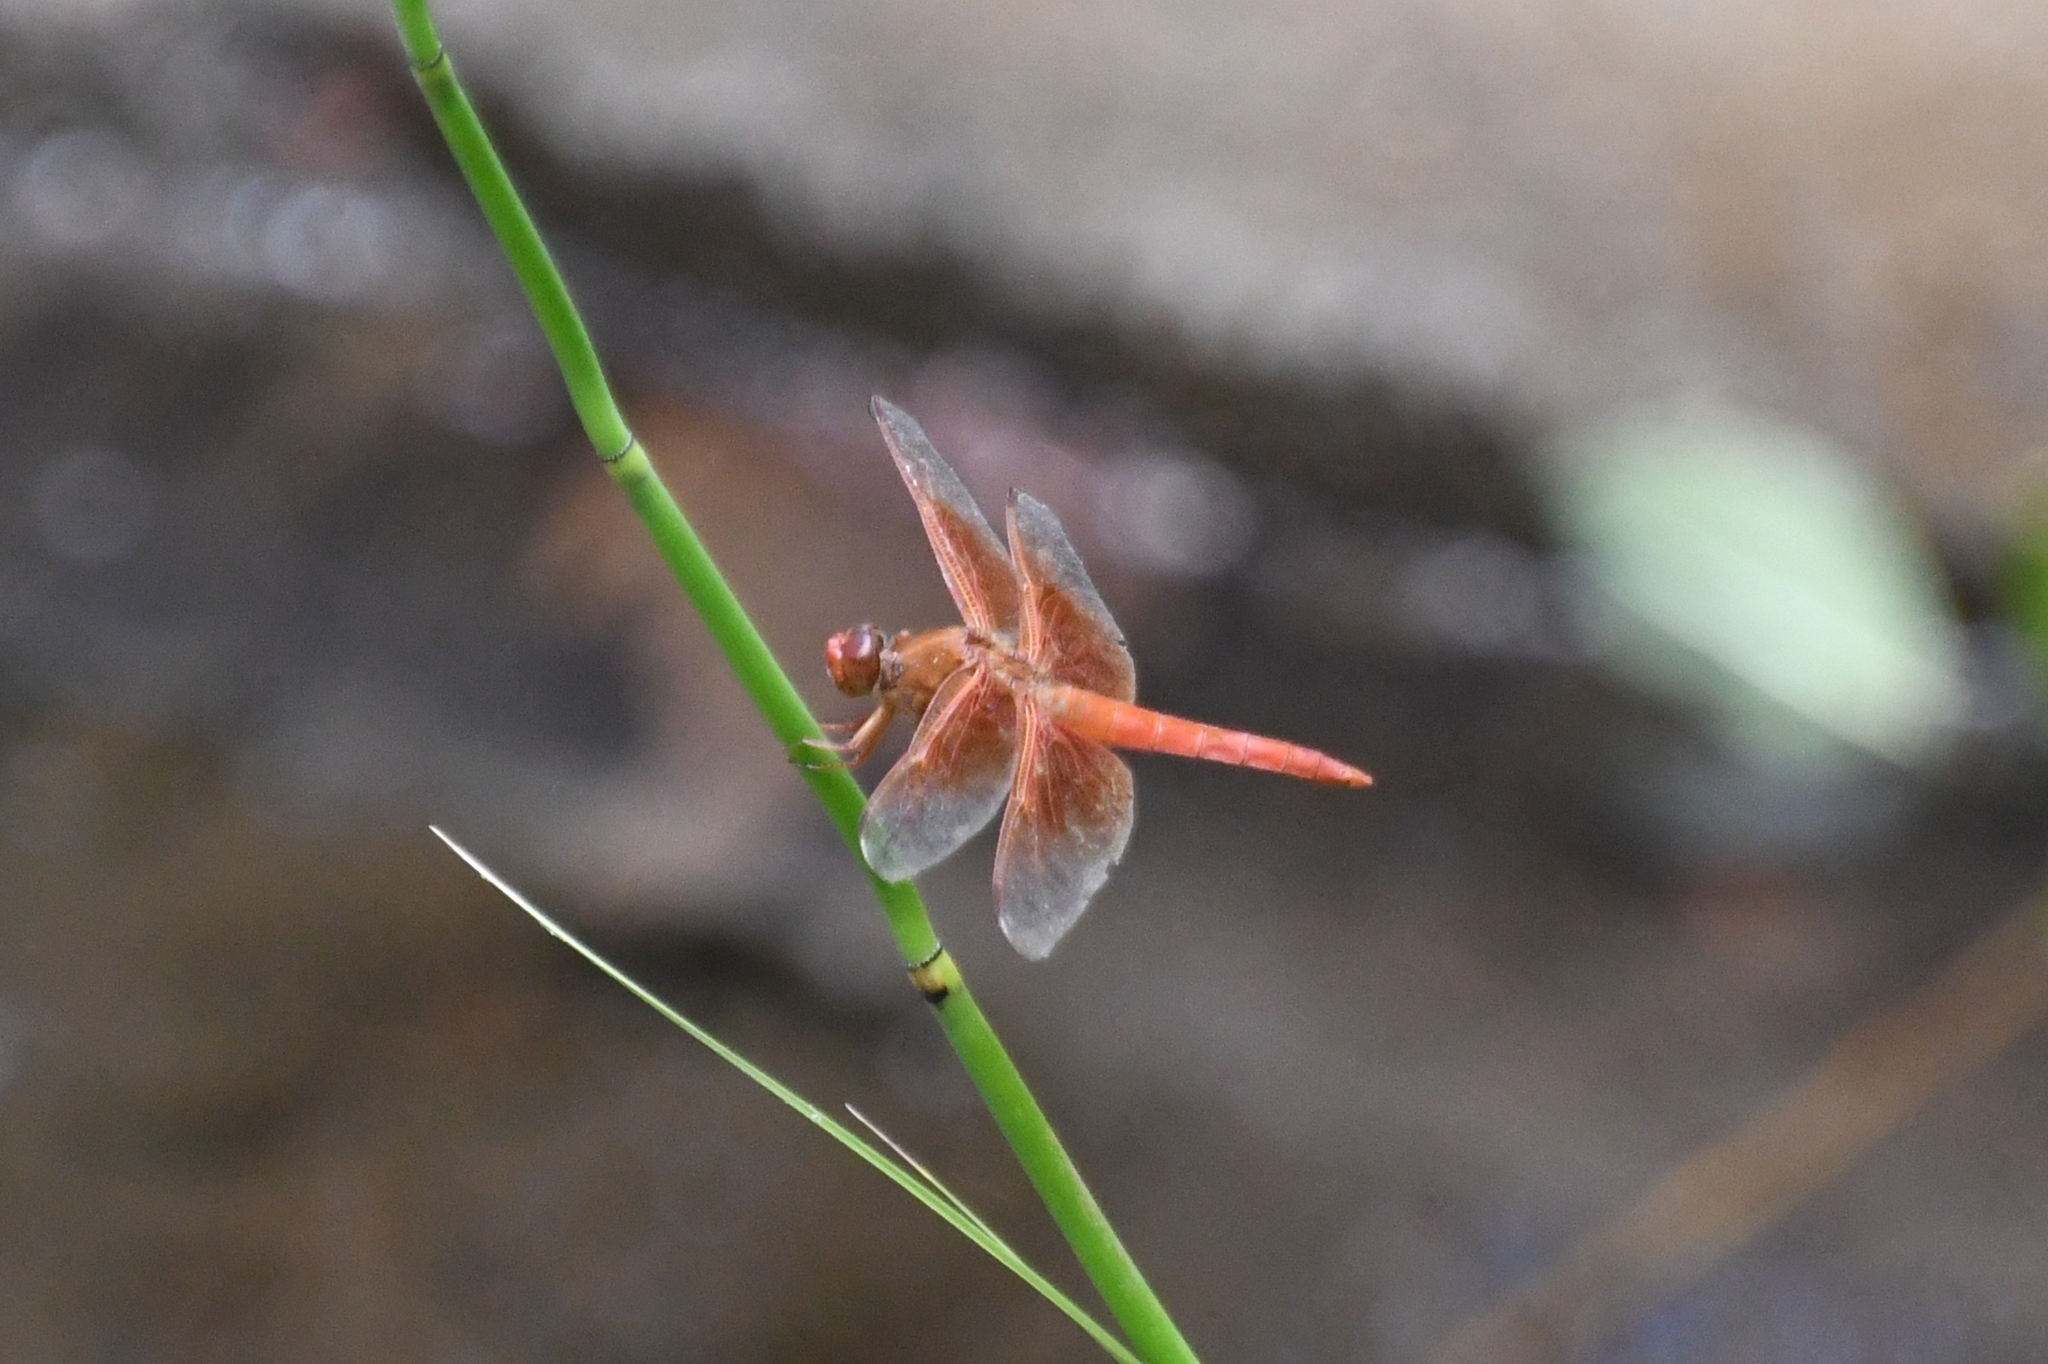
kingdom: Animalia
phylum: Arthropoda
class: Insecta
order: Odonata
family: Libellulidae
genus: Libellula
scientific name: Libellula saturata
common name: Flame skimmer
